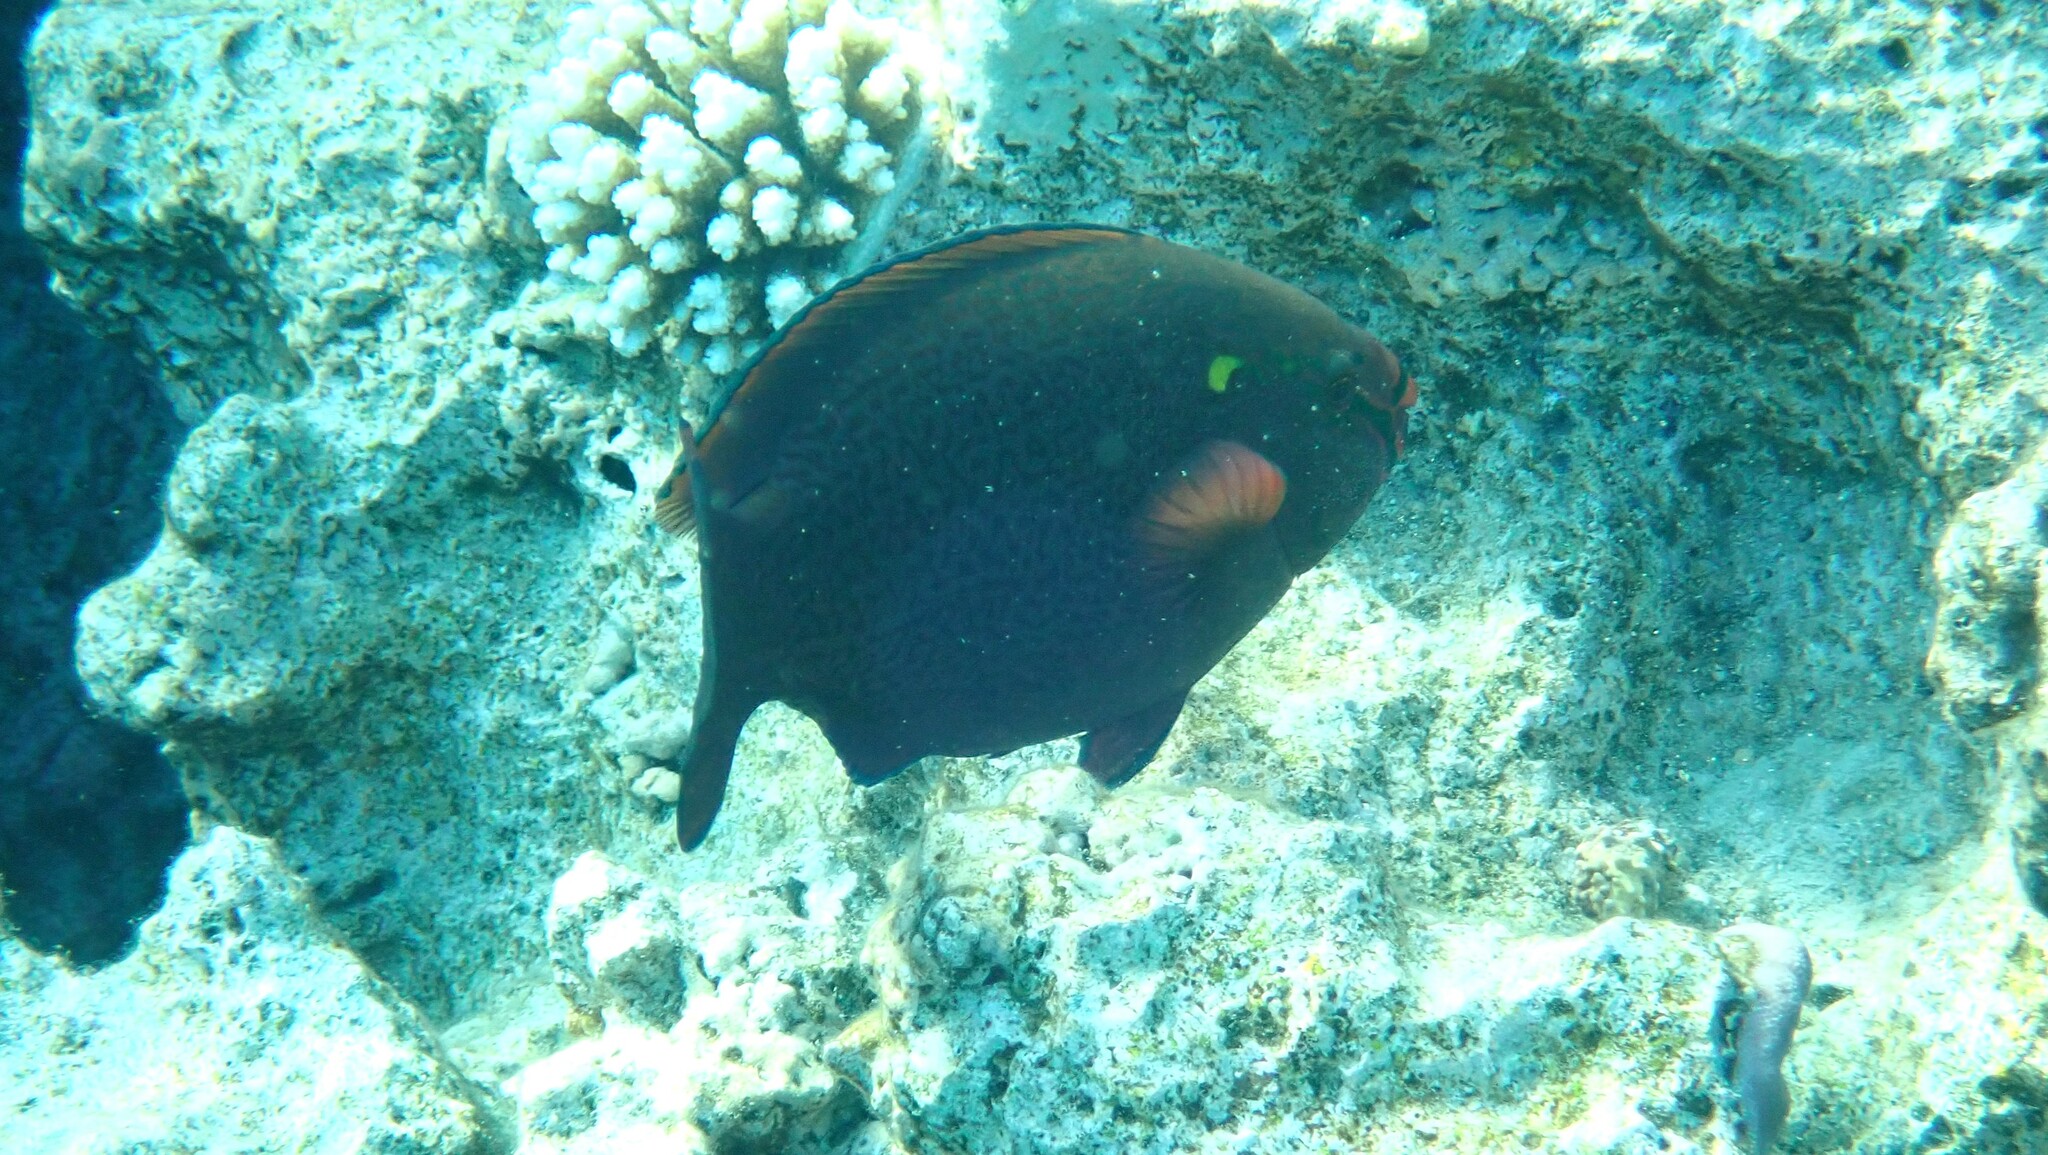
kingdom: Animalia
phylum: Chordata
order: Perciformes
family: Scaridae
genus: Scarus
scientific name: Scarus niger
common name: Dusky parrotfish
